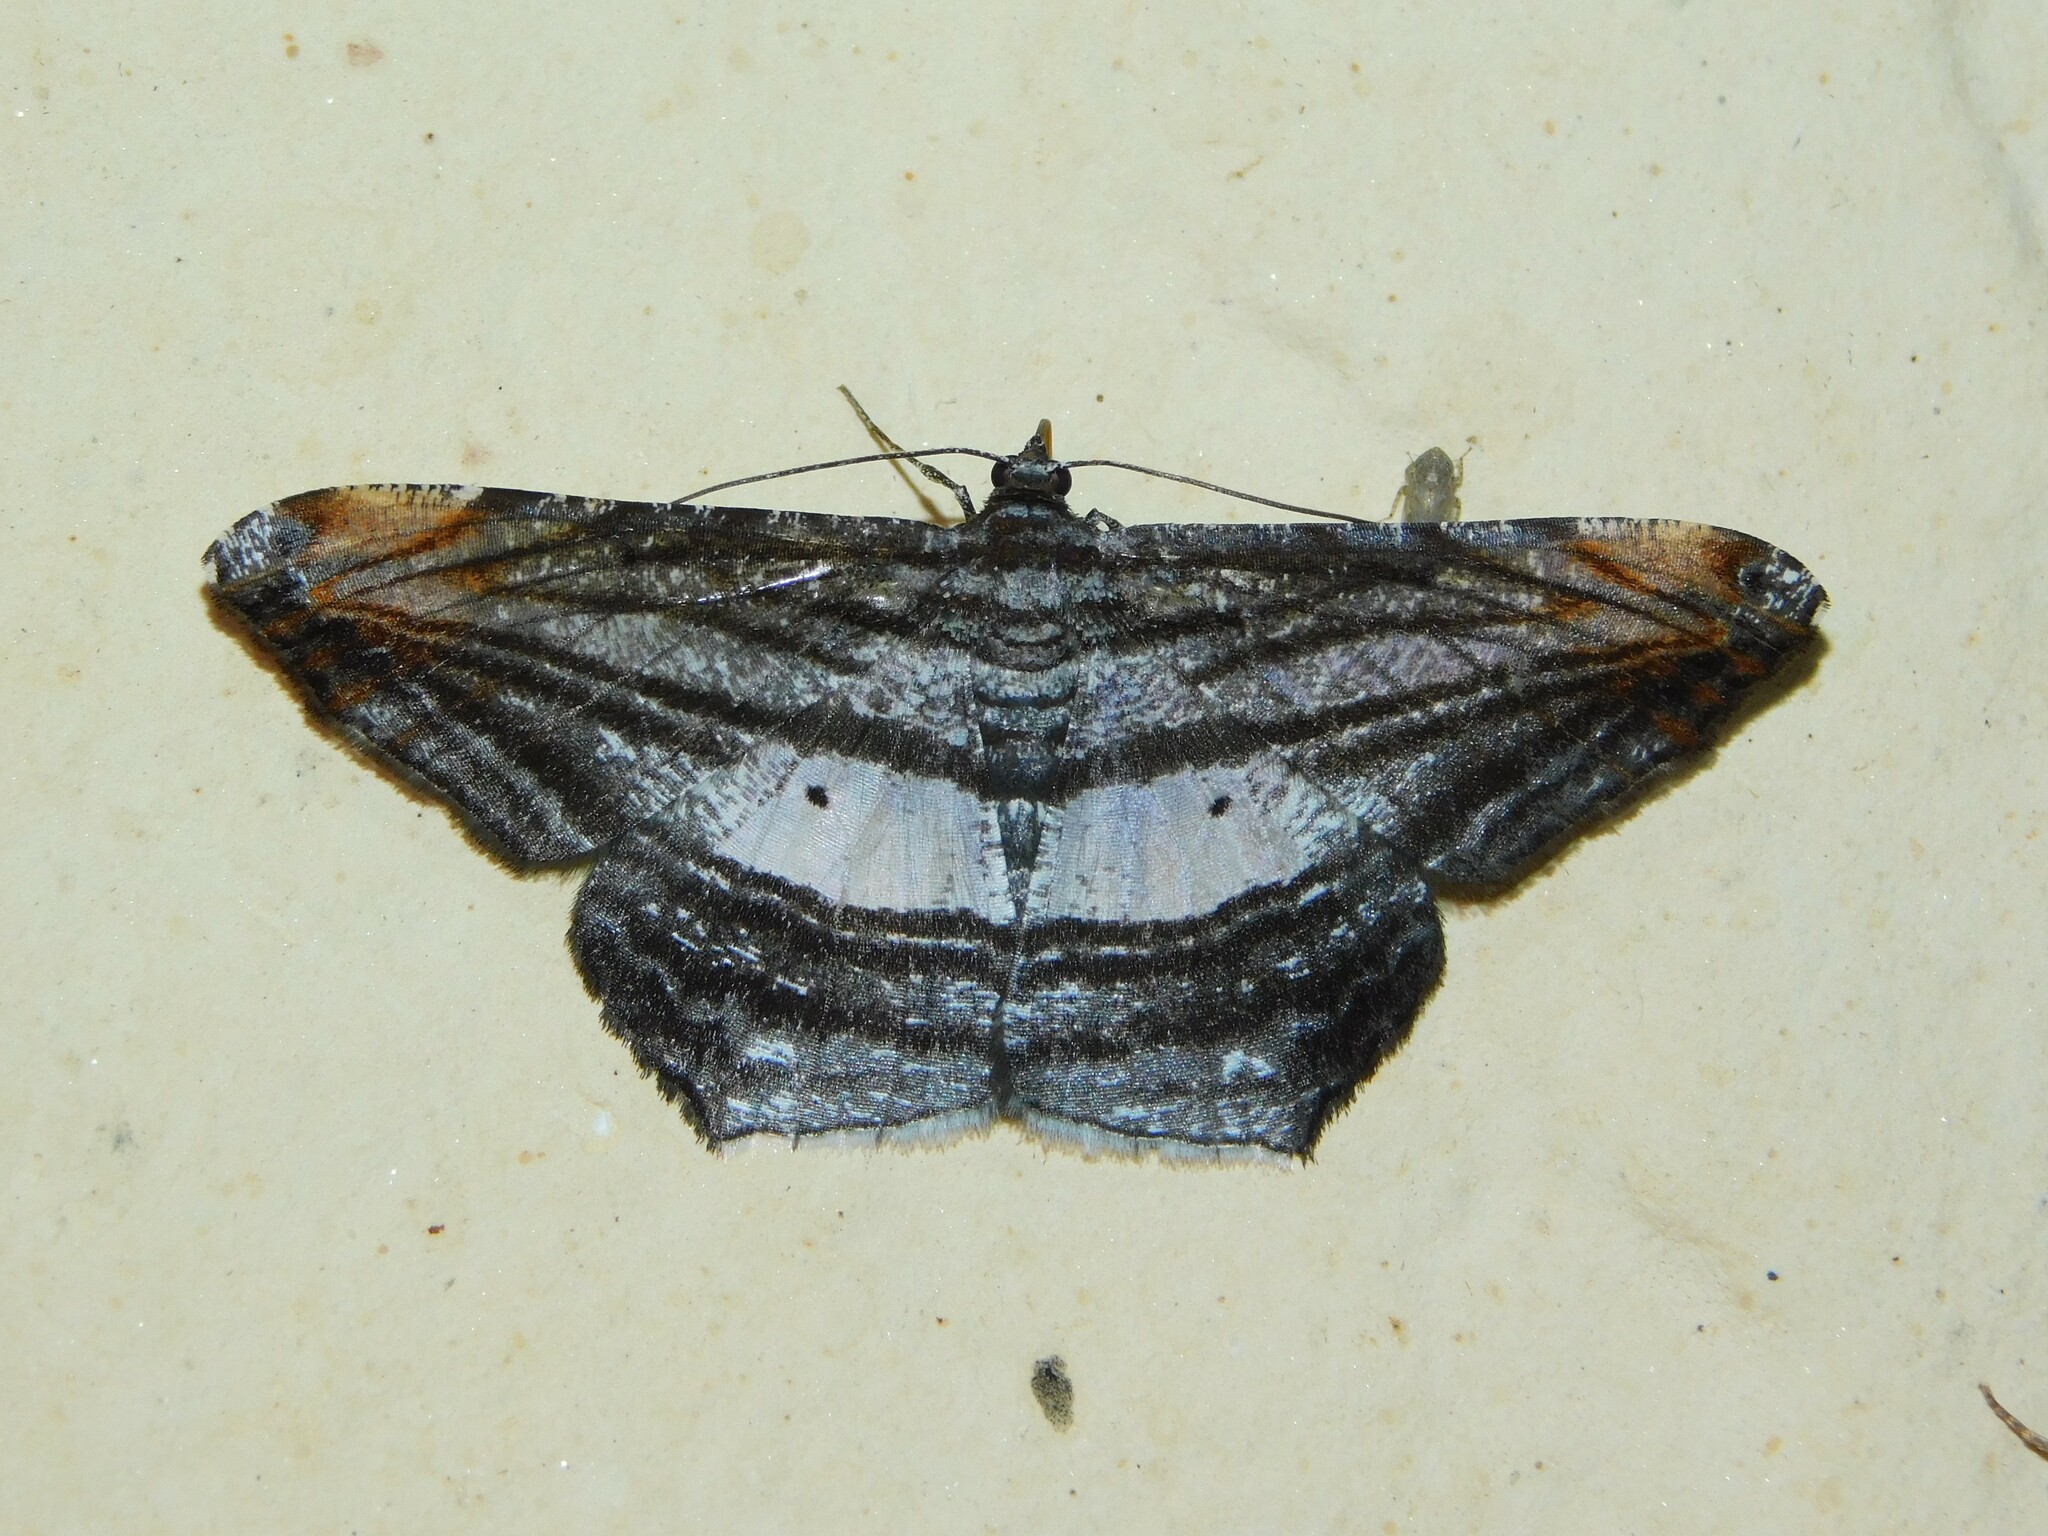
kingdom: Animalia
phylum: Arthropoda
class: Insecta
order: Lepidoptera
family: Geometridae
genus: Chiasmia
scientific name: Chiasmia fulvisparsa
